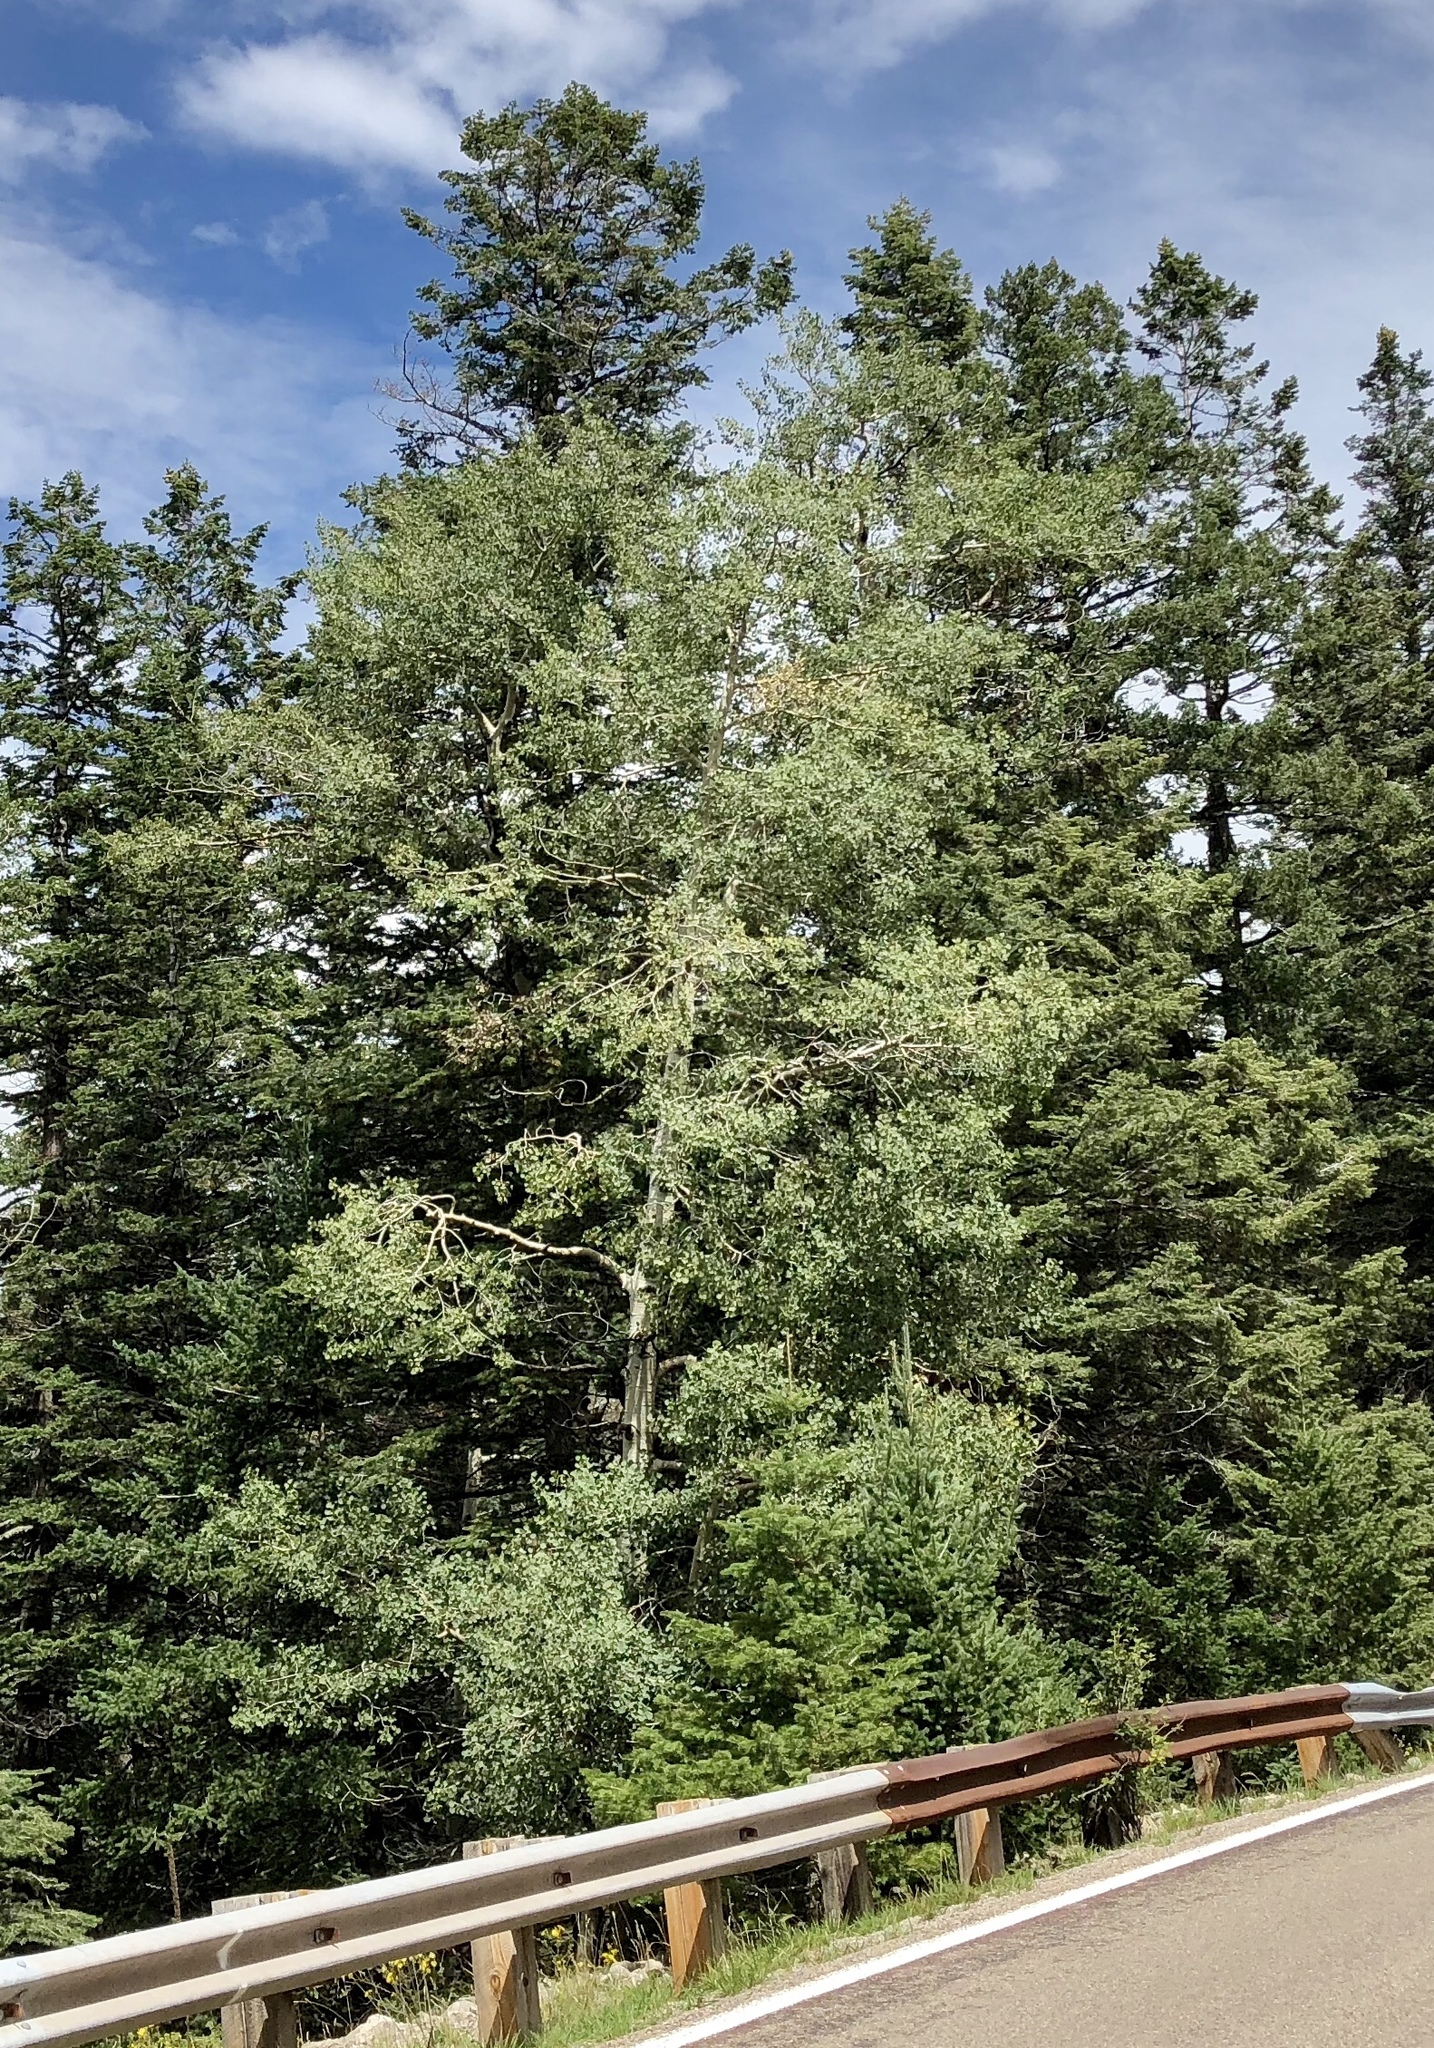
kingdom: Plantae
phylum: Tracheophyta
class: Magnoliopsida
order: Malpighiales
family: Salicaceae
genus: Populus
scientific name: Populus tremuloides
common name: Quaking aspen
